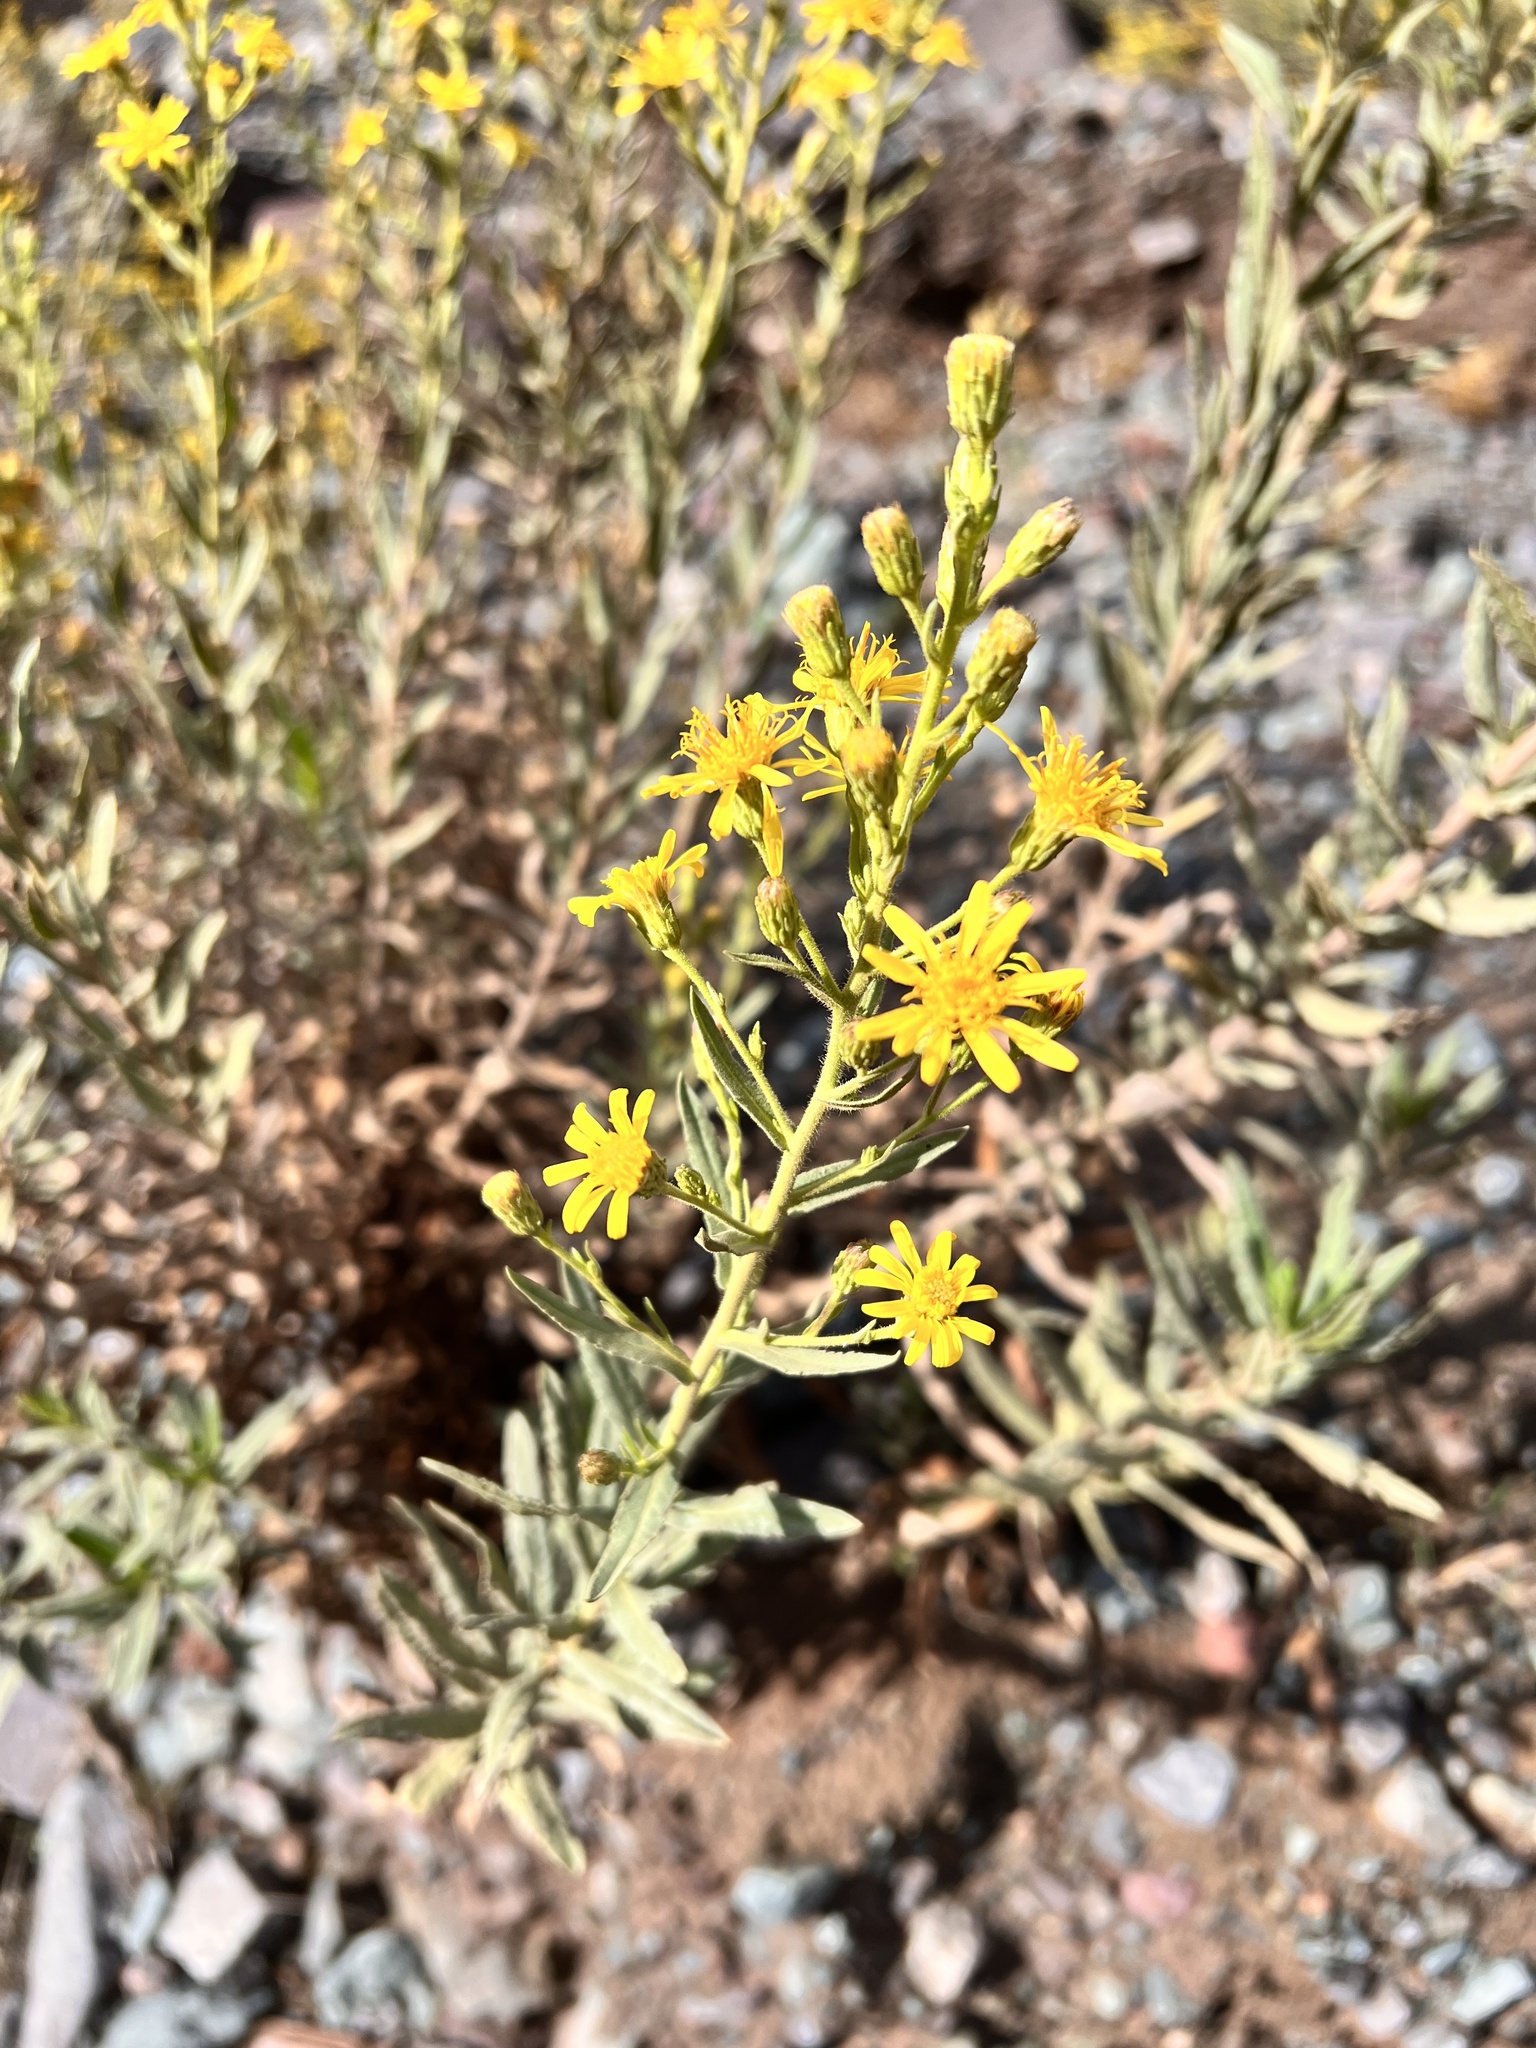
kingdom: Plantae
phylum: Tracheophyta
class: Magnoliopsida
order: Asterales
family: Asteraceae
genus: Dittrichia
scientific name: Dittrichia viscosa
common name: Woody fleabane
